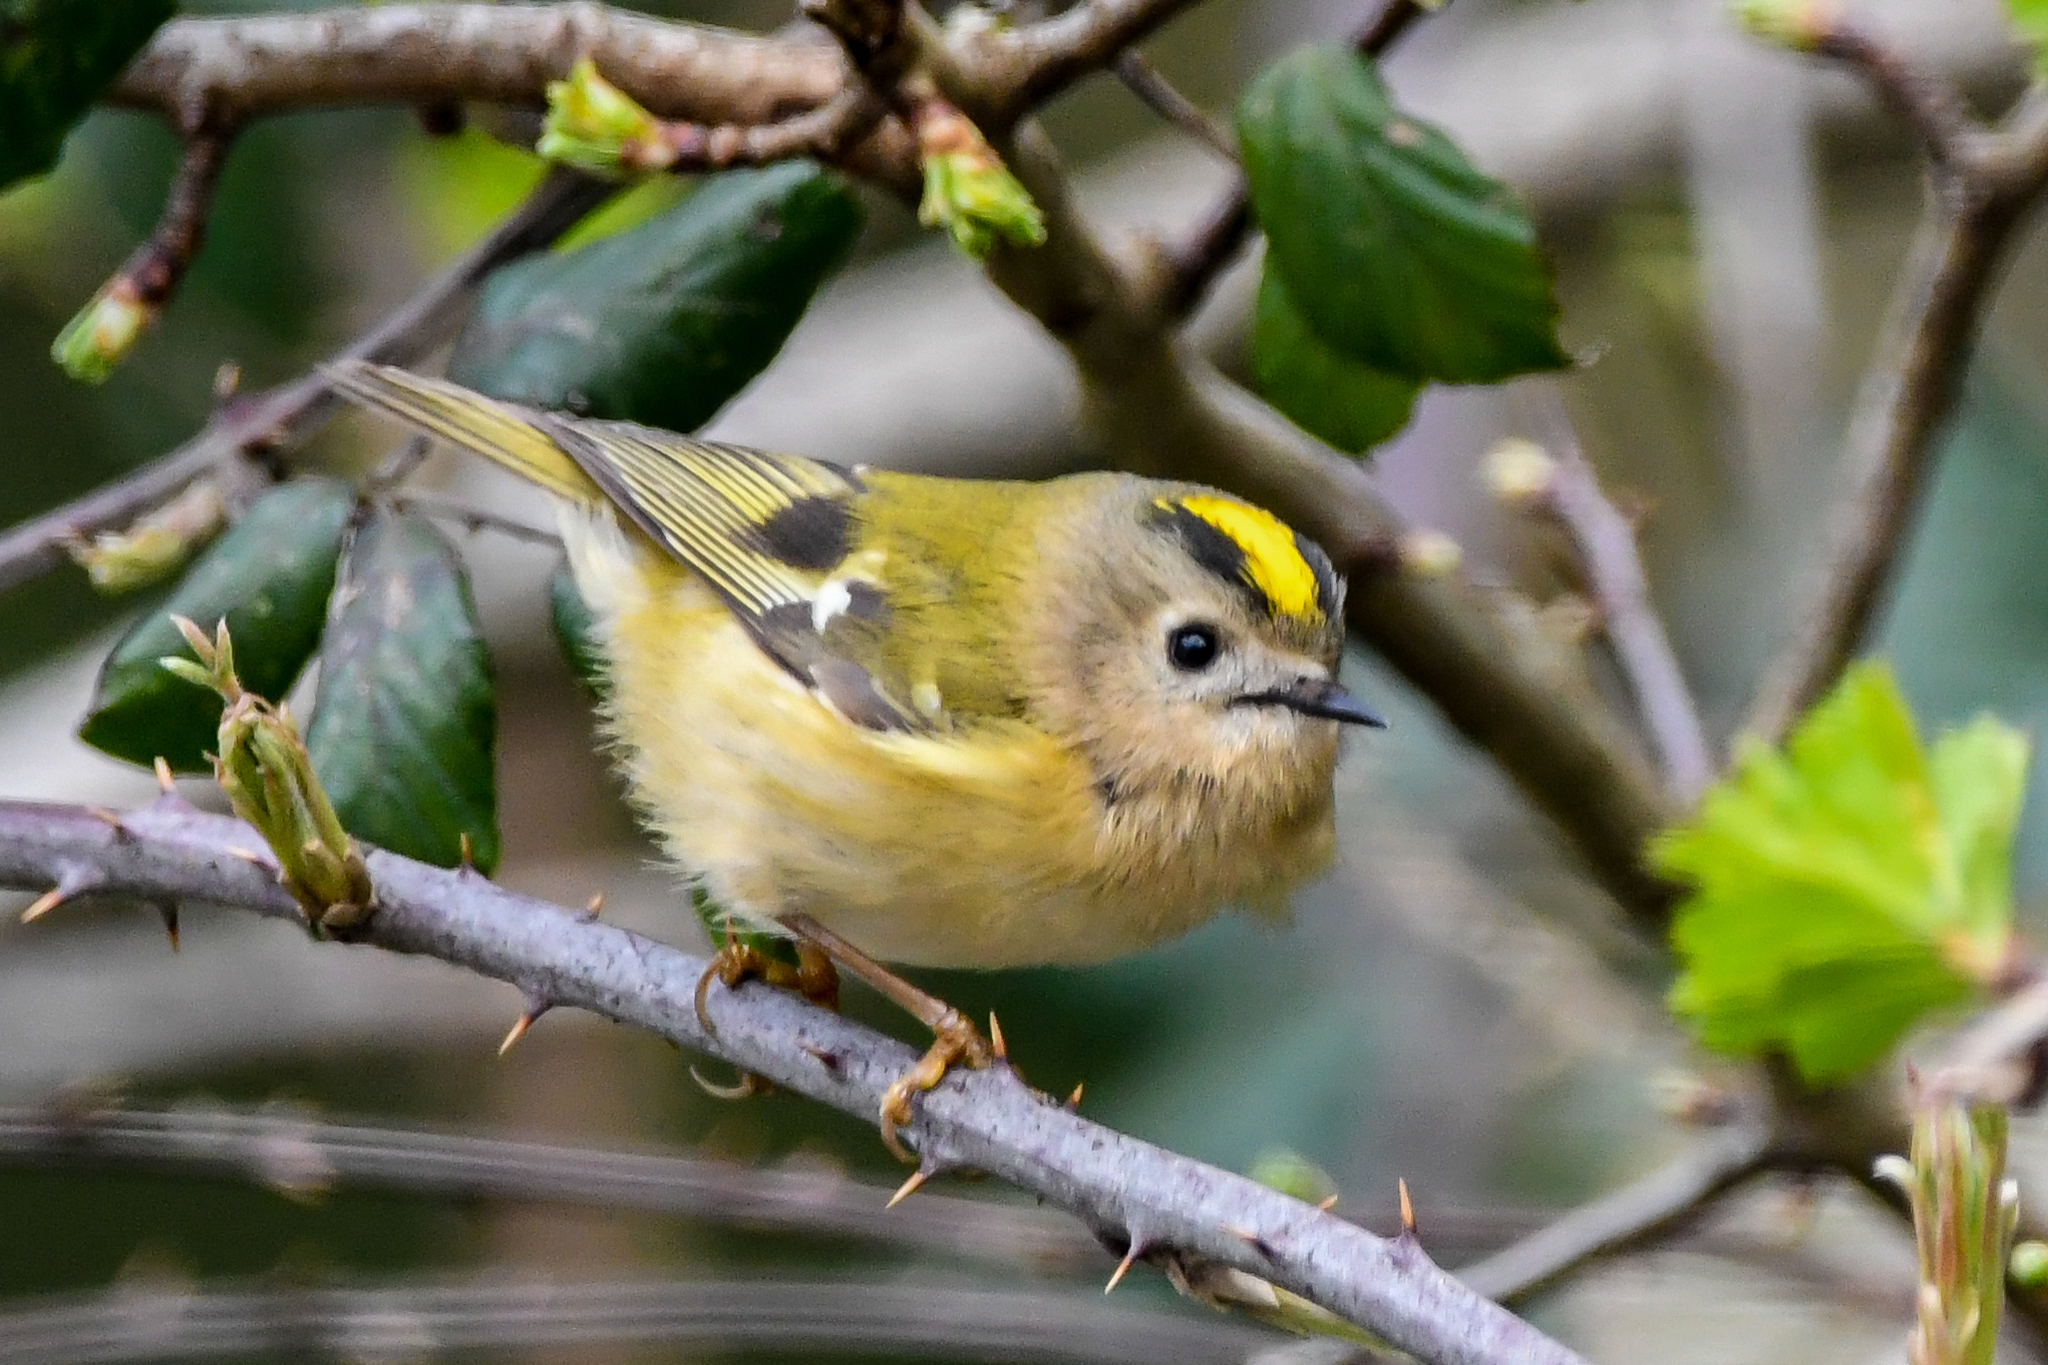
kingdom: Animalia
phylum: Chordata
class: Aves
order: Passeriformes
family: Regulidae
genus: Regulus
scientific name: Regulus regulus
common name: Goldcrest
